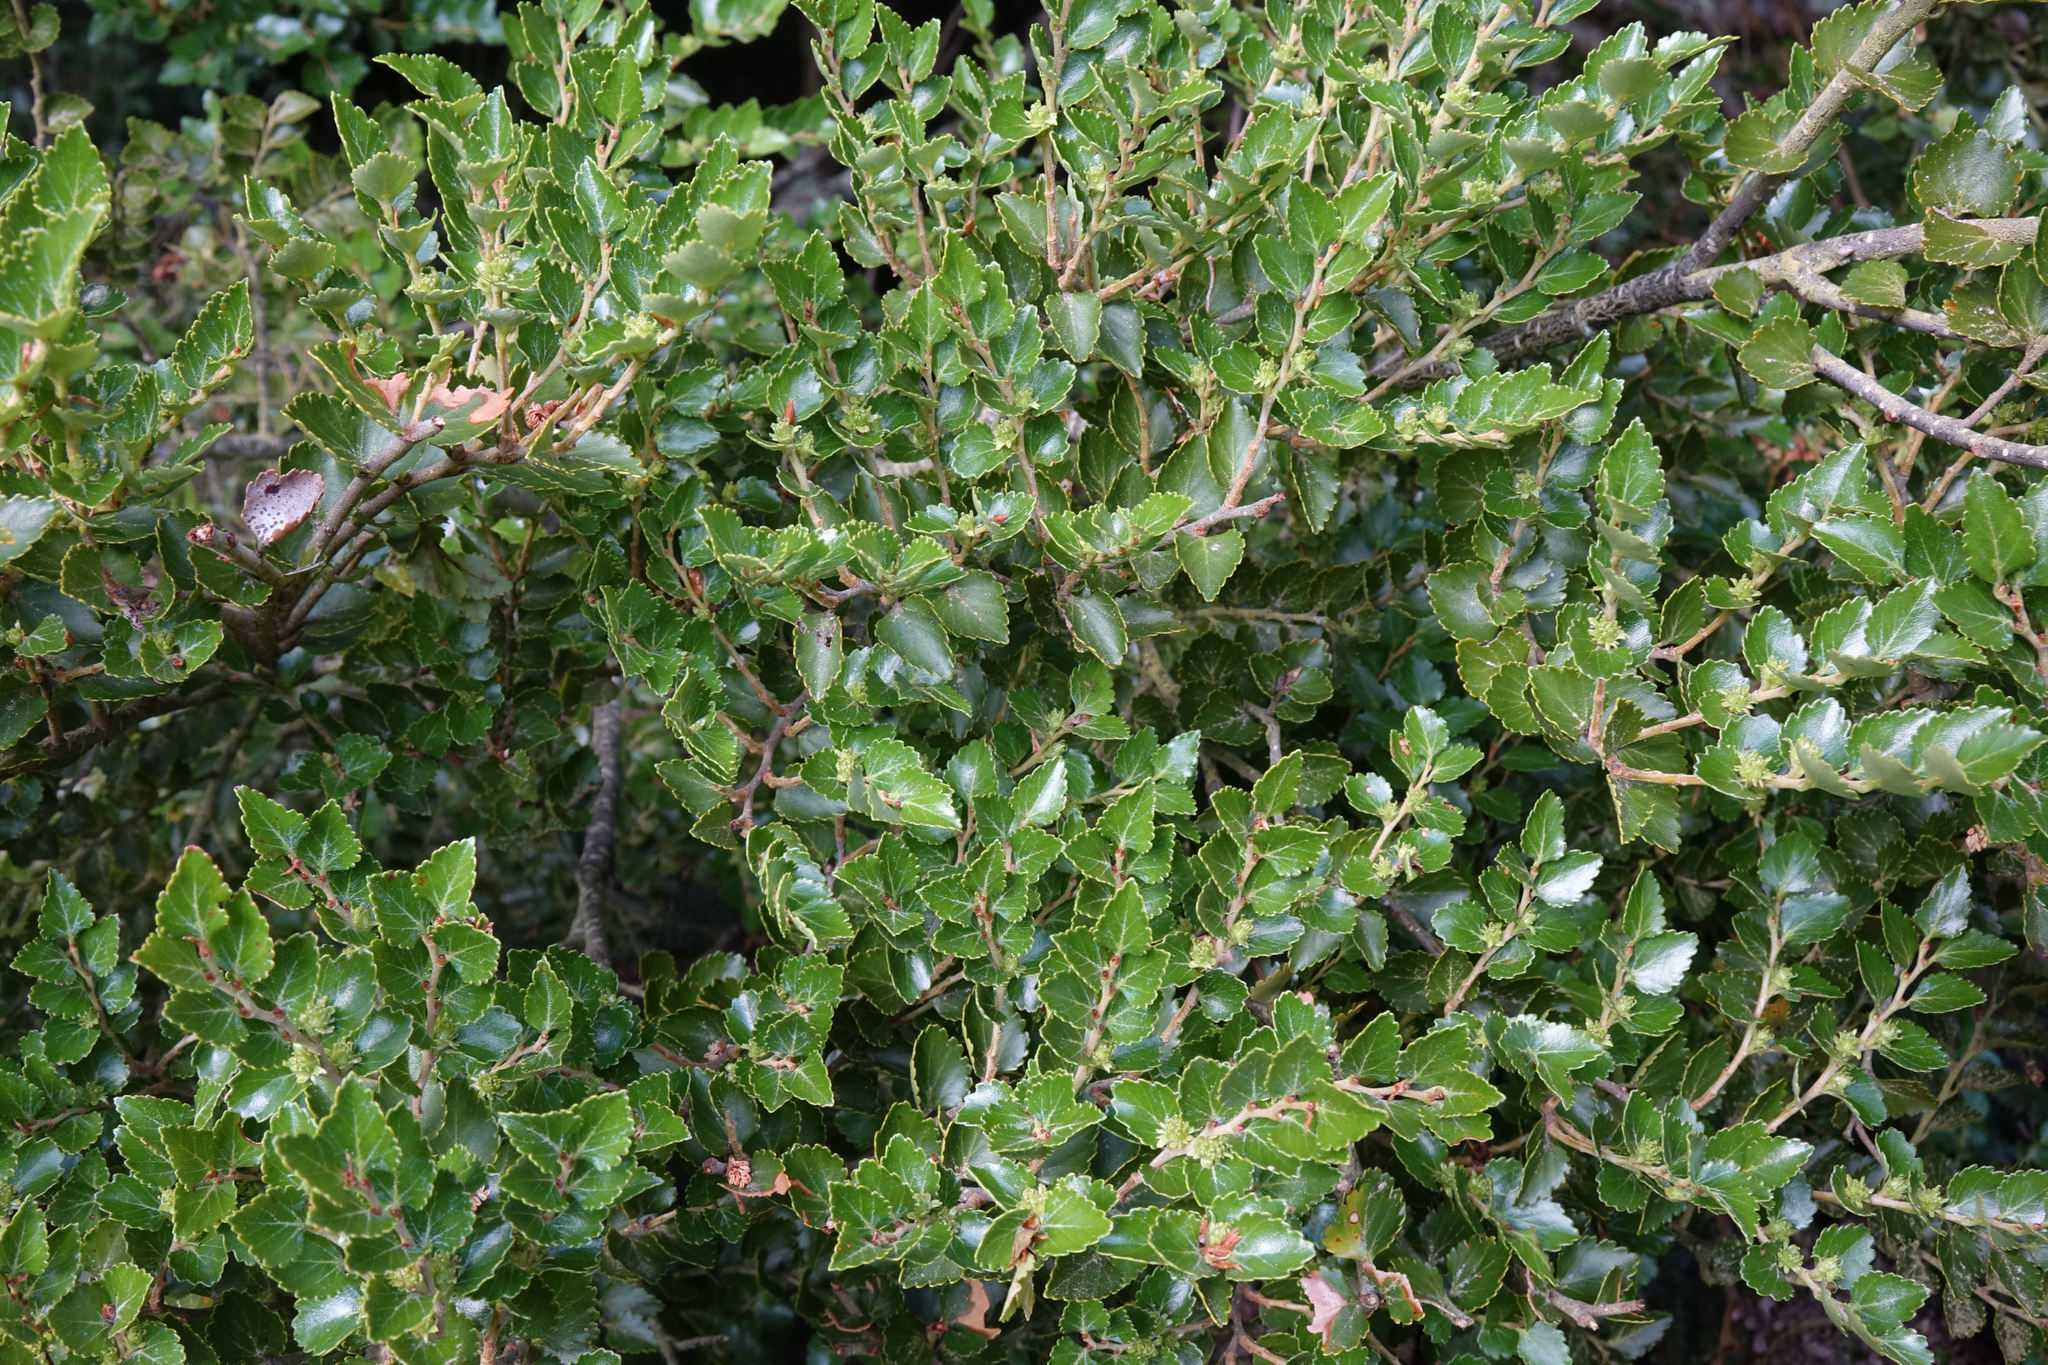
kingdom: Plantae
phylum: Tracheophyta
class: Magnoliopsida
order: Fagales
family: Nothofagaceae
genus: Nothofagus
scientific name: Nothofagus menziesii
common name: Silver beech
